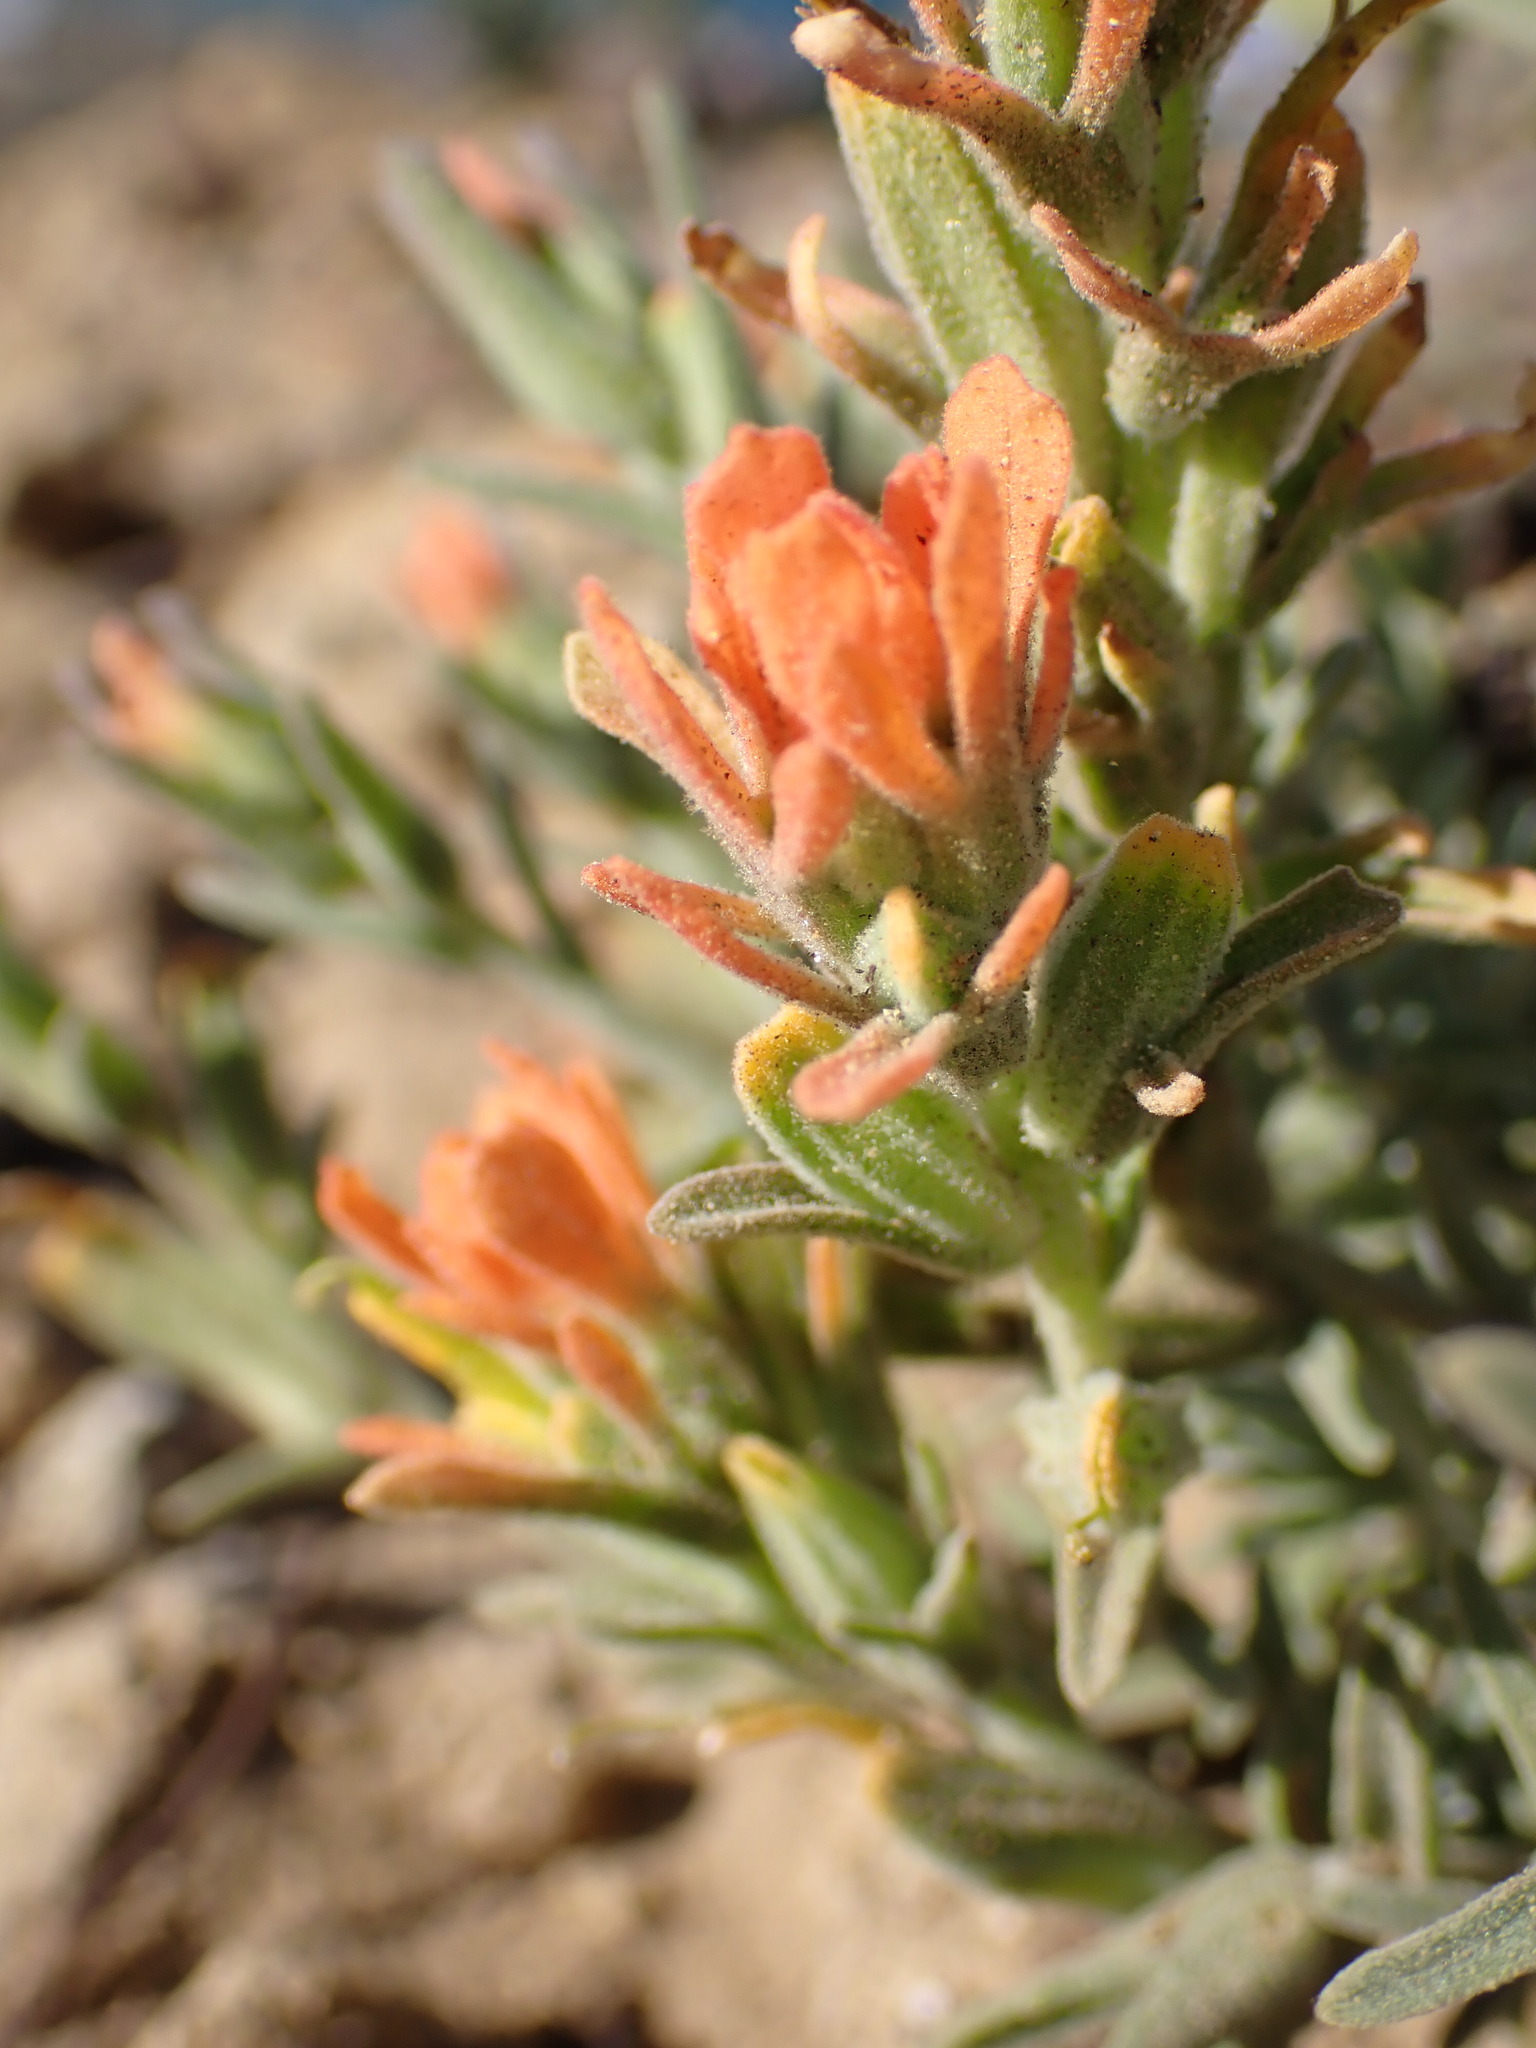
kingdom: Plantae
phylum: Tracheophyta
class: Magnoliopsida
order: Lamiales
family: Orobanchaceae
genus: Castilleja
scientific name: Castilleja foliolosa
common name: Woolly indian paintbrush
